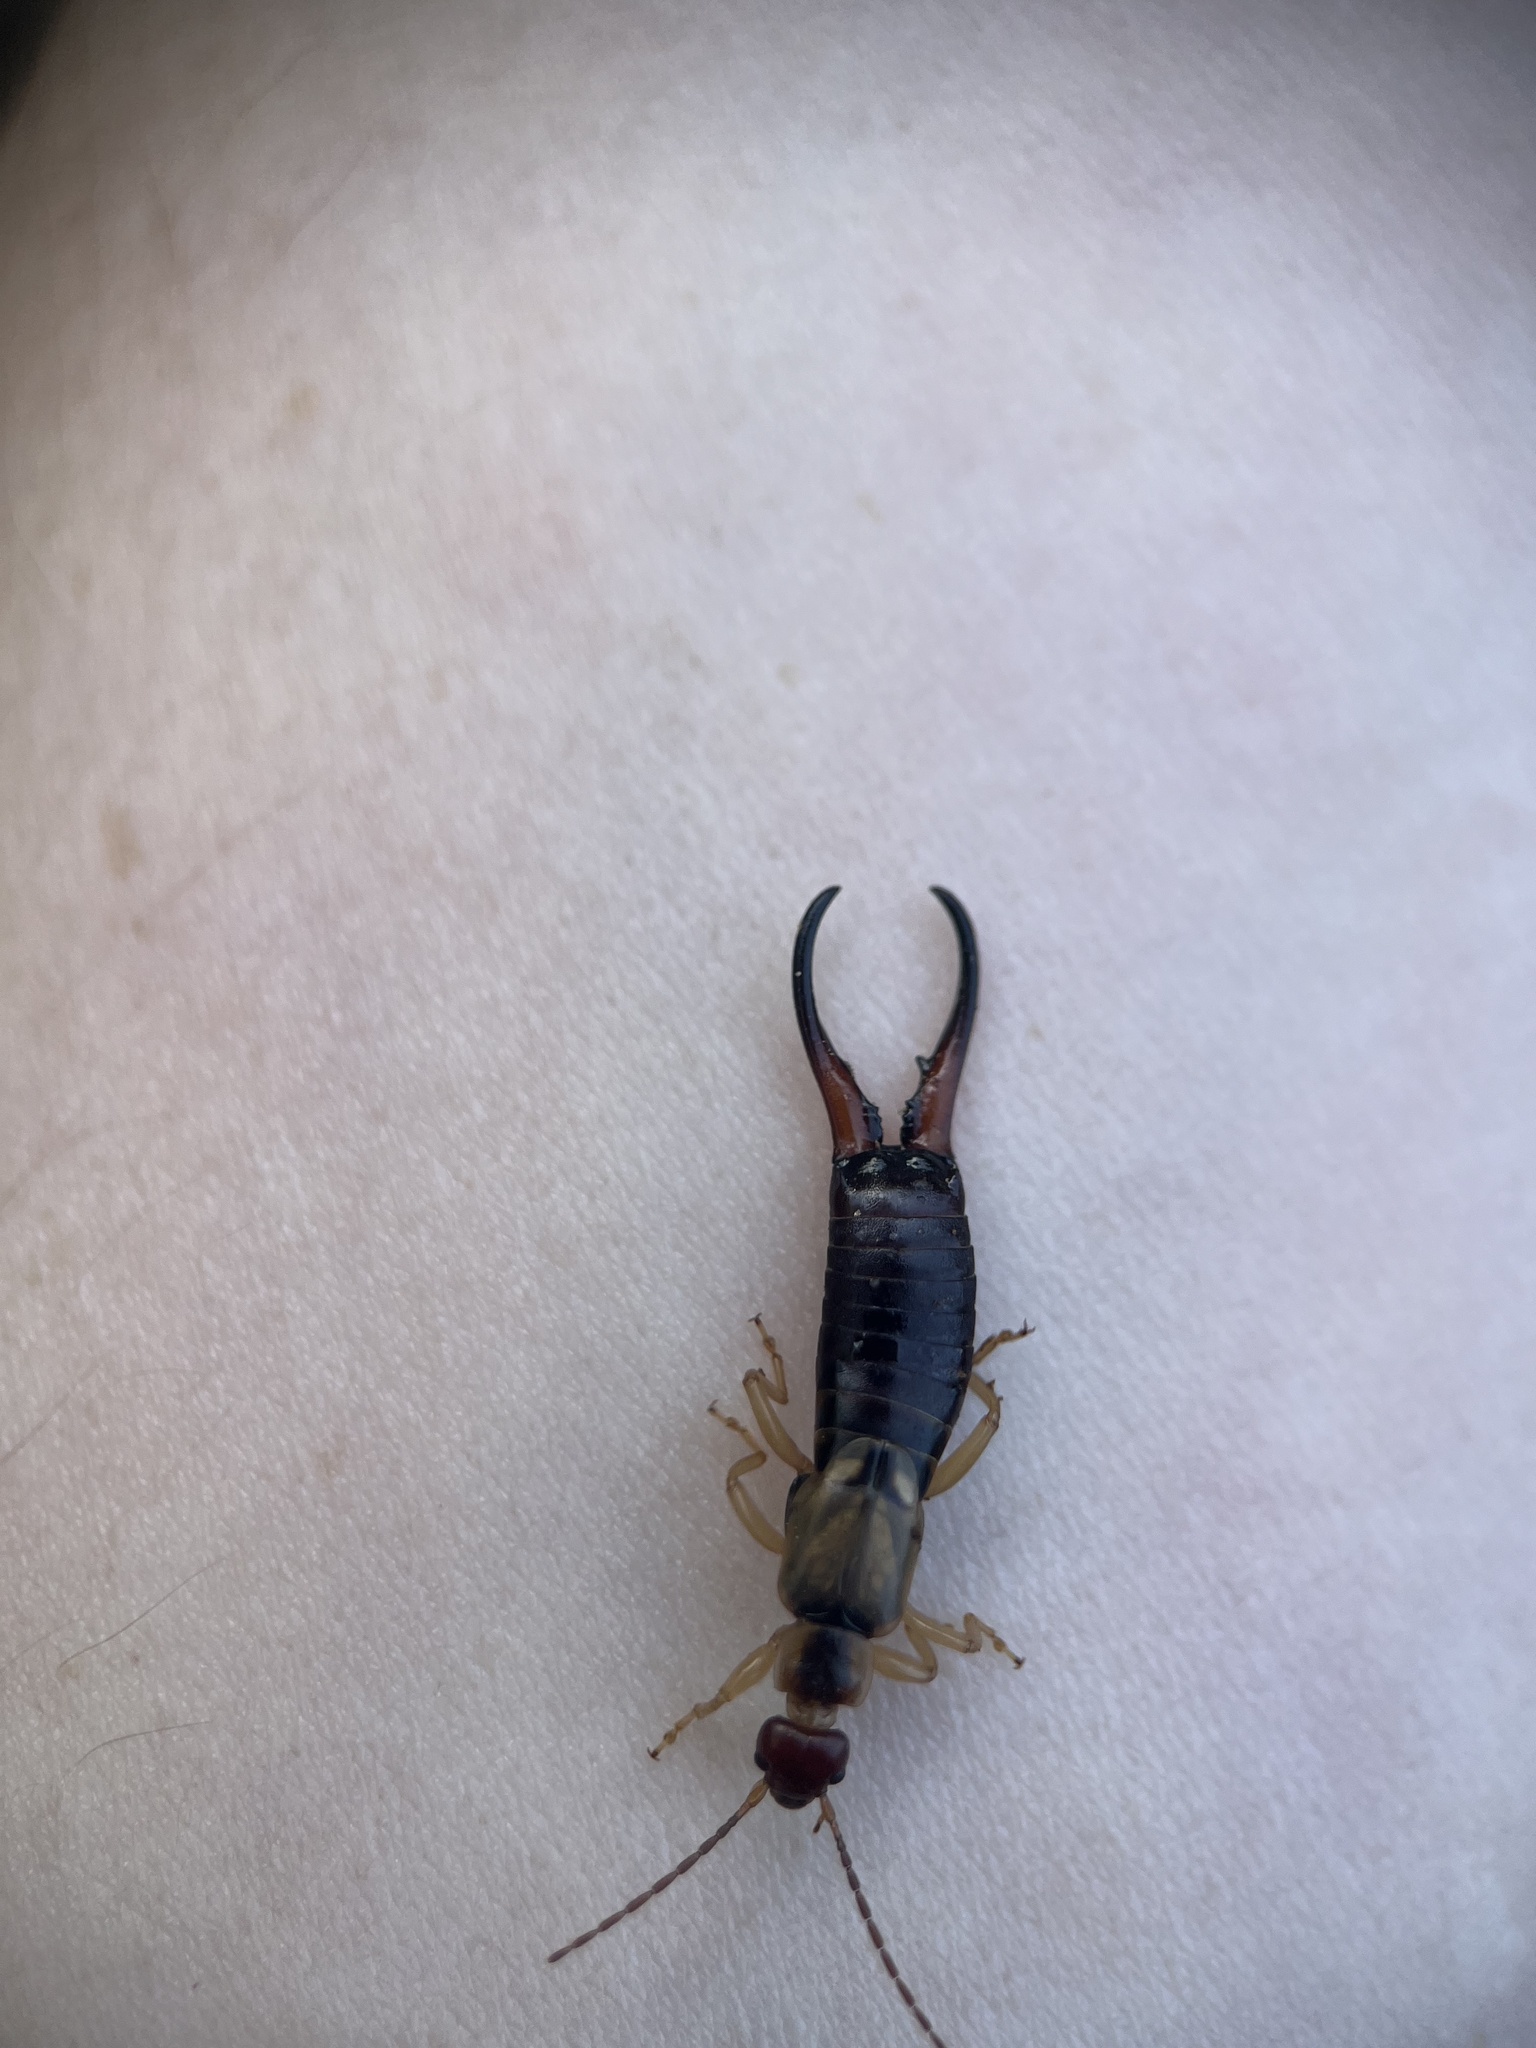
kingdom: Animalia
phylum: Arthropoda
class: Insecta
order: Dermaptera
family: Forficulidae
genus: Forficula
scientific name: Forficula dentata
